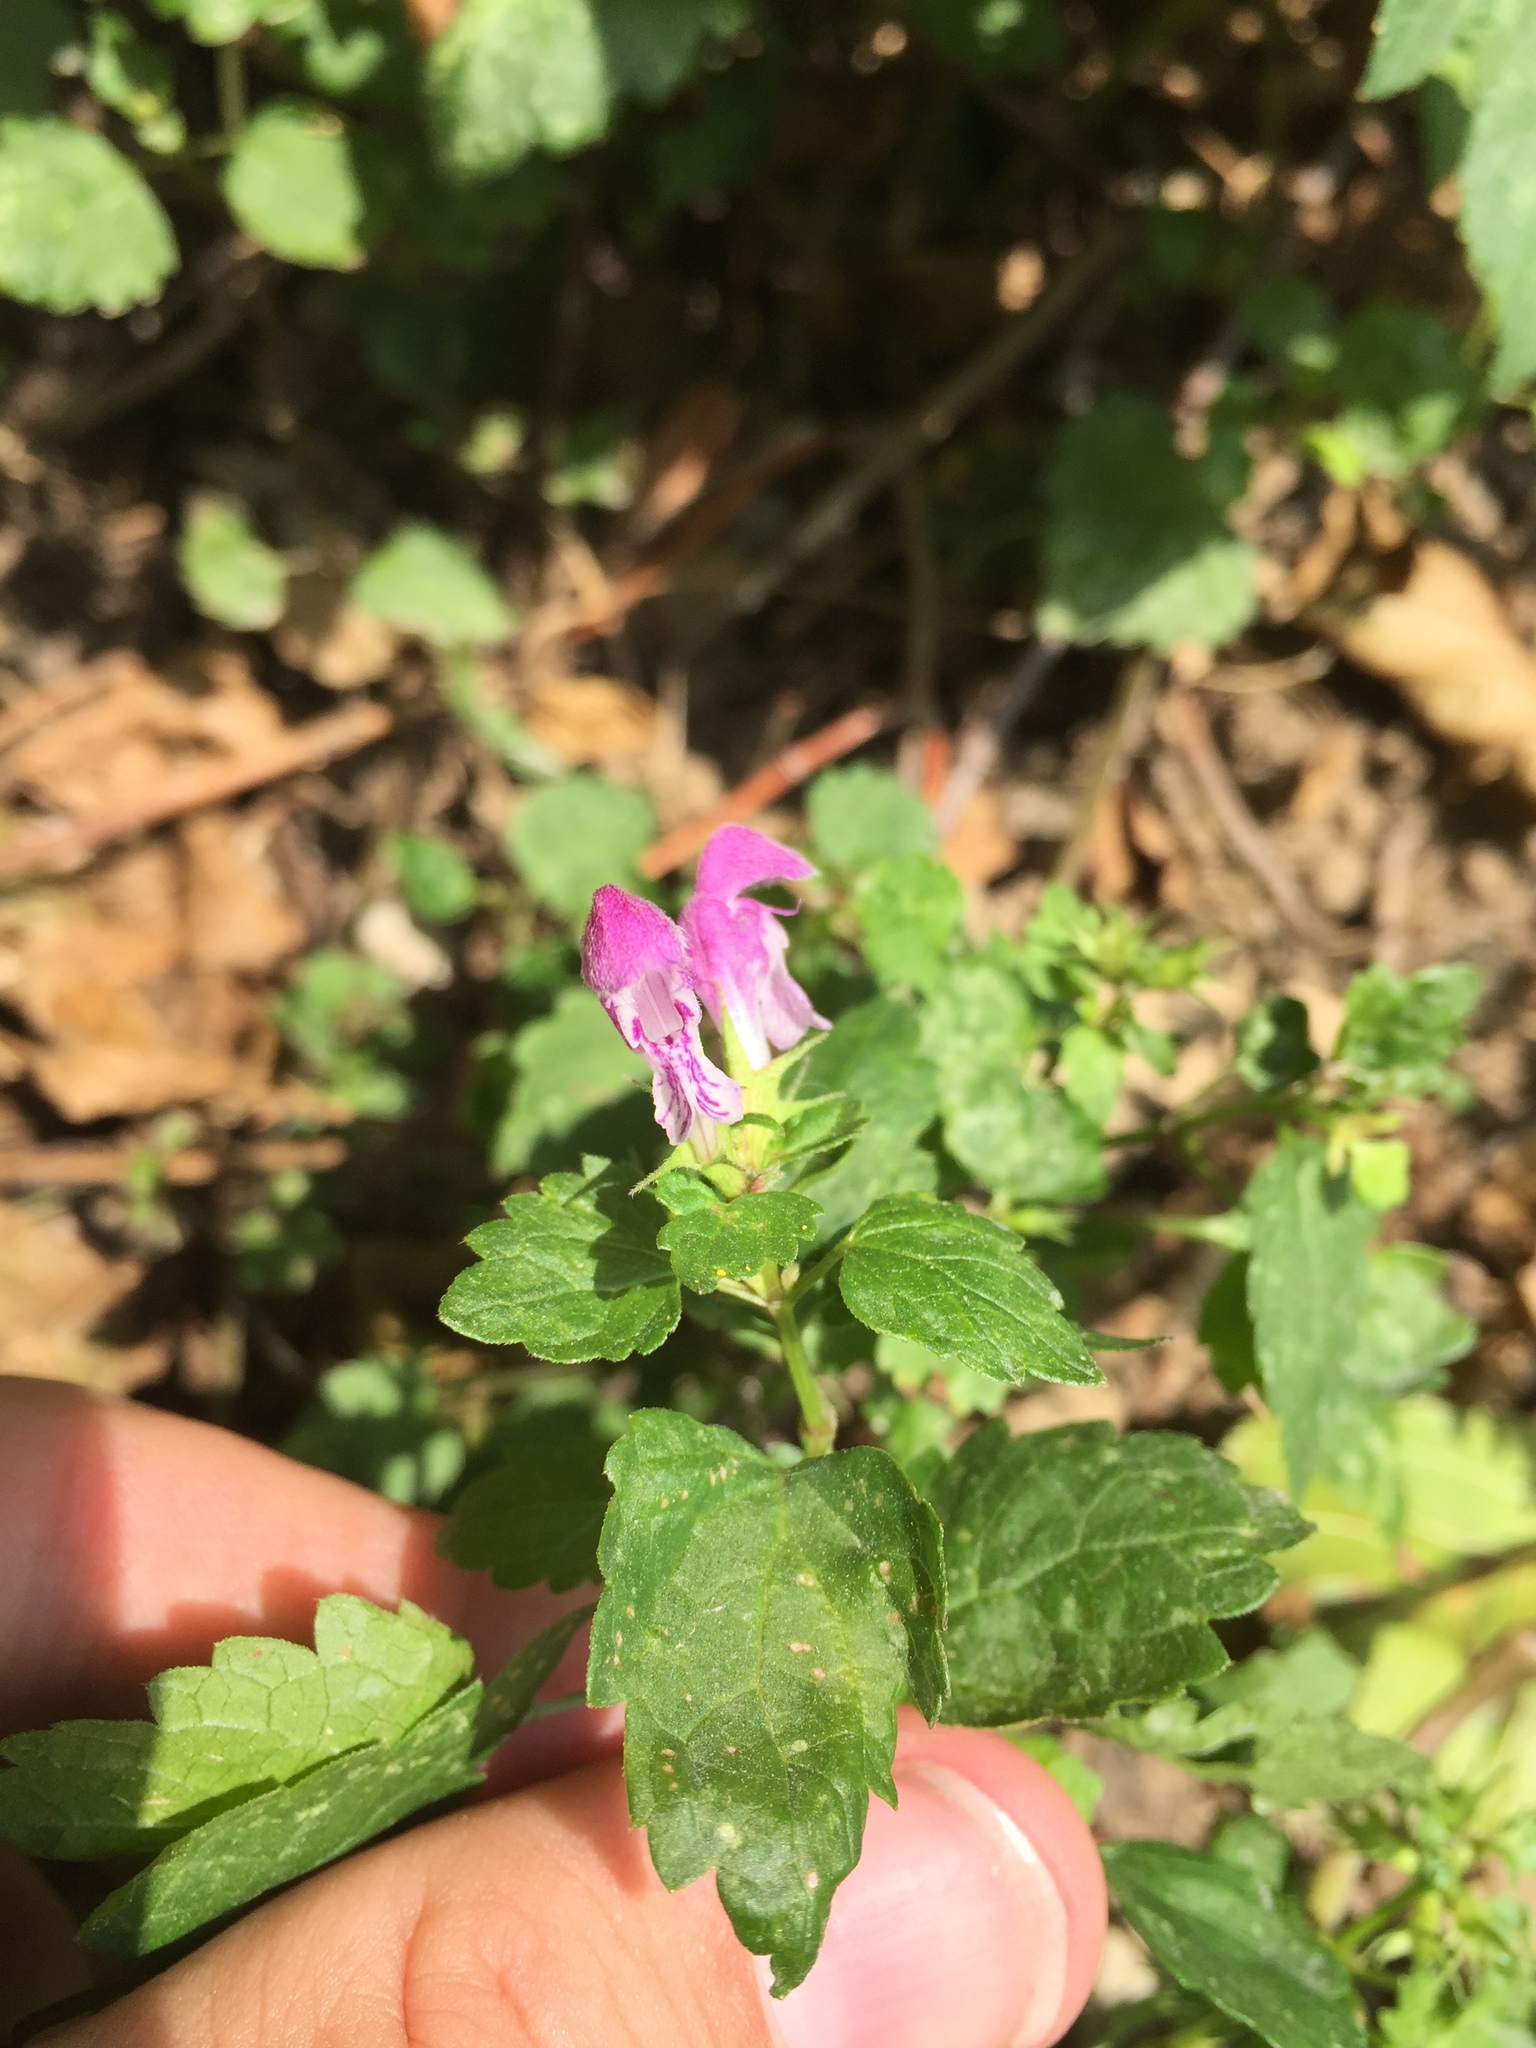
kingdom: Plantae
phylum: Tracheophyta
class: Magnoliopsida
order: Lamiales
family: Lamiaceae
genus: Lamium
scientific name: Lamium amplexicaule
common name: Henbit dead-nettle
